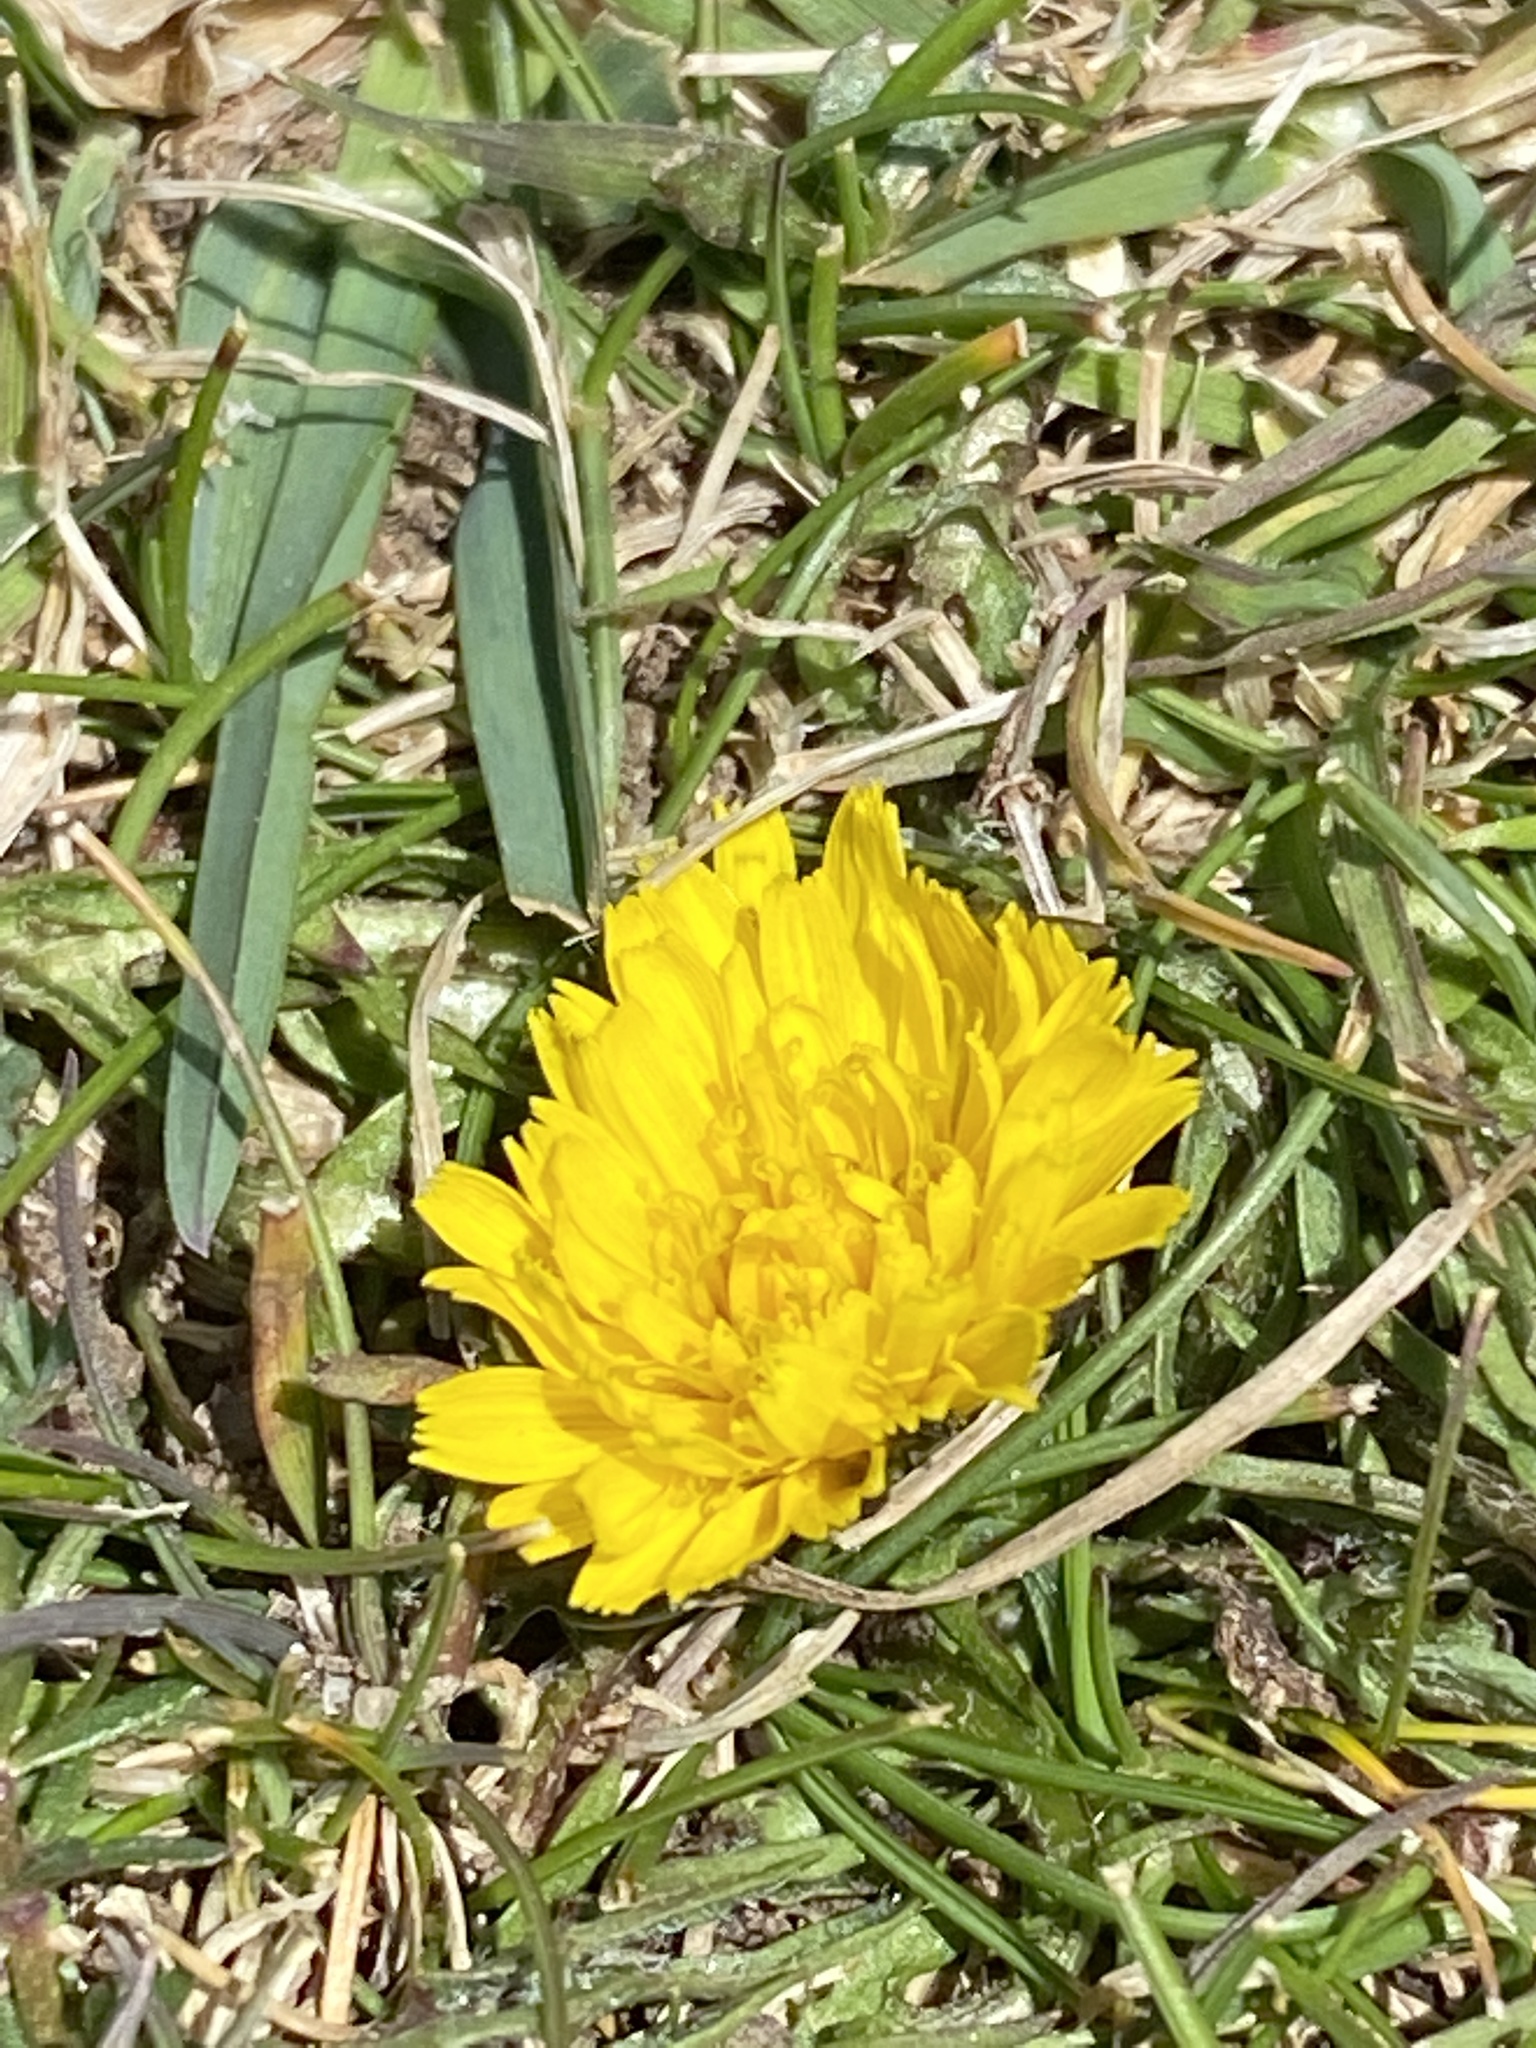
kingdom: Plantae
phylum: Tracheophyta
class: Magnoliopsida
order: Asterales
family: Asteraceae
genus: Hypochaeris
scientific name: Hypochaeris radicata
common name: Flatweed
